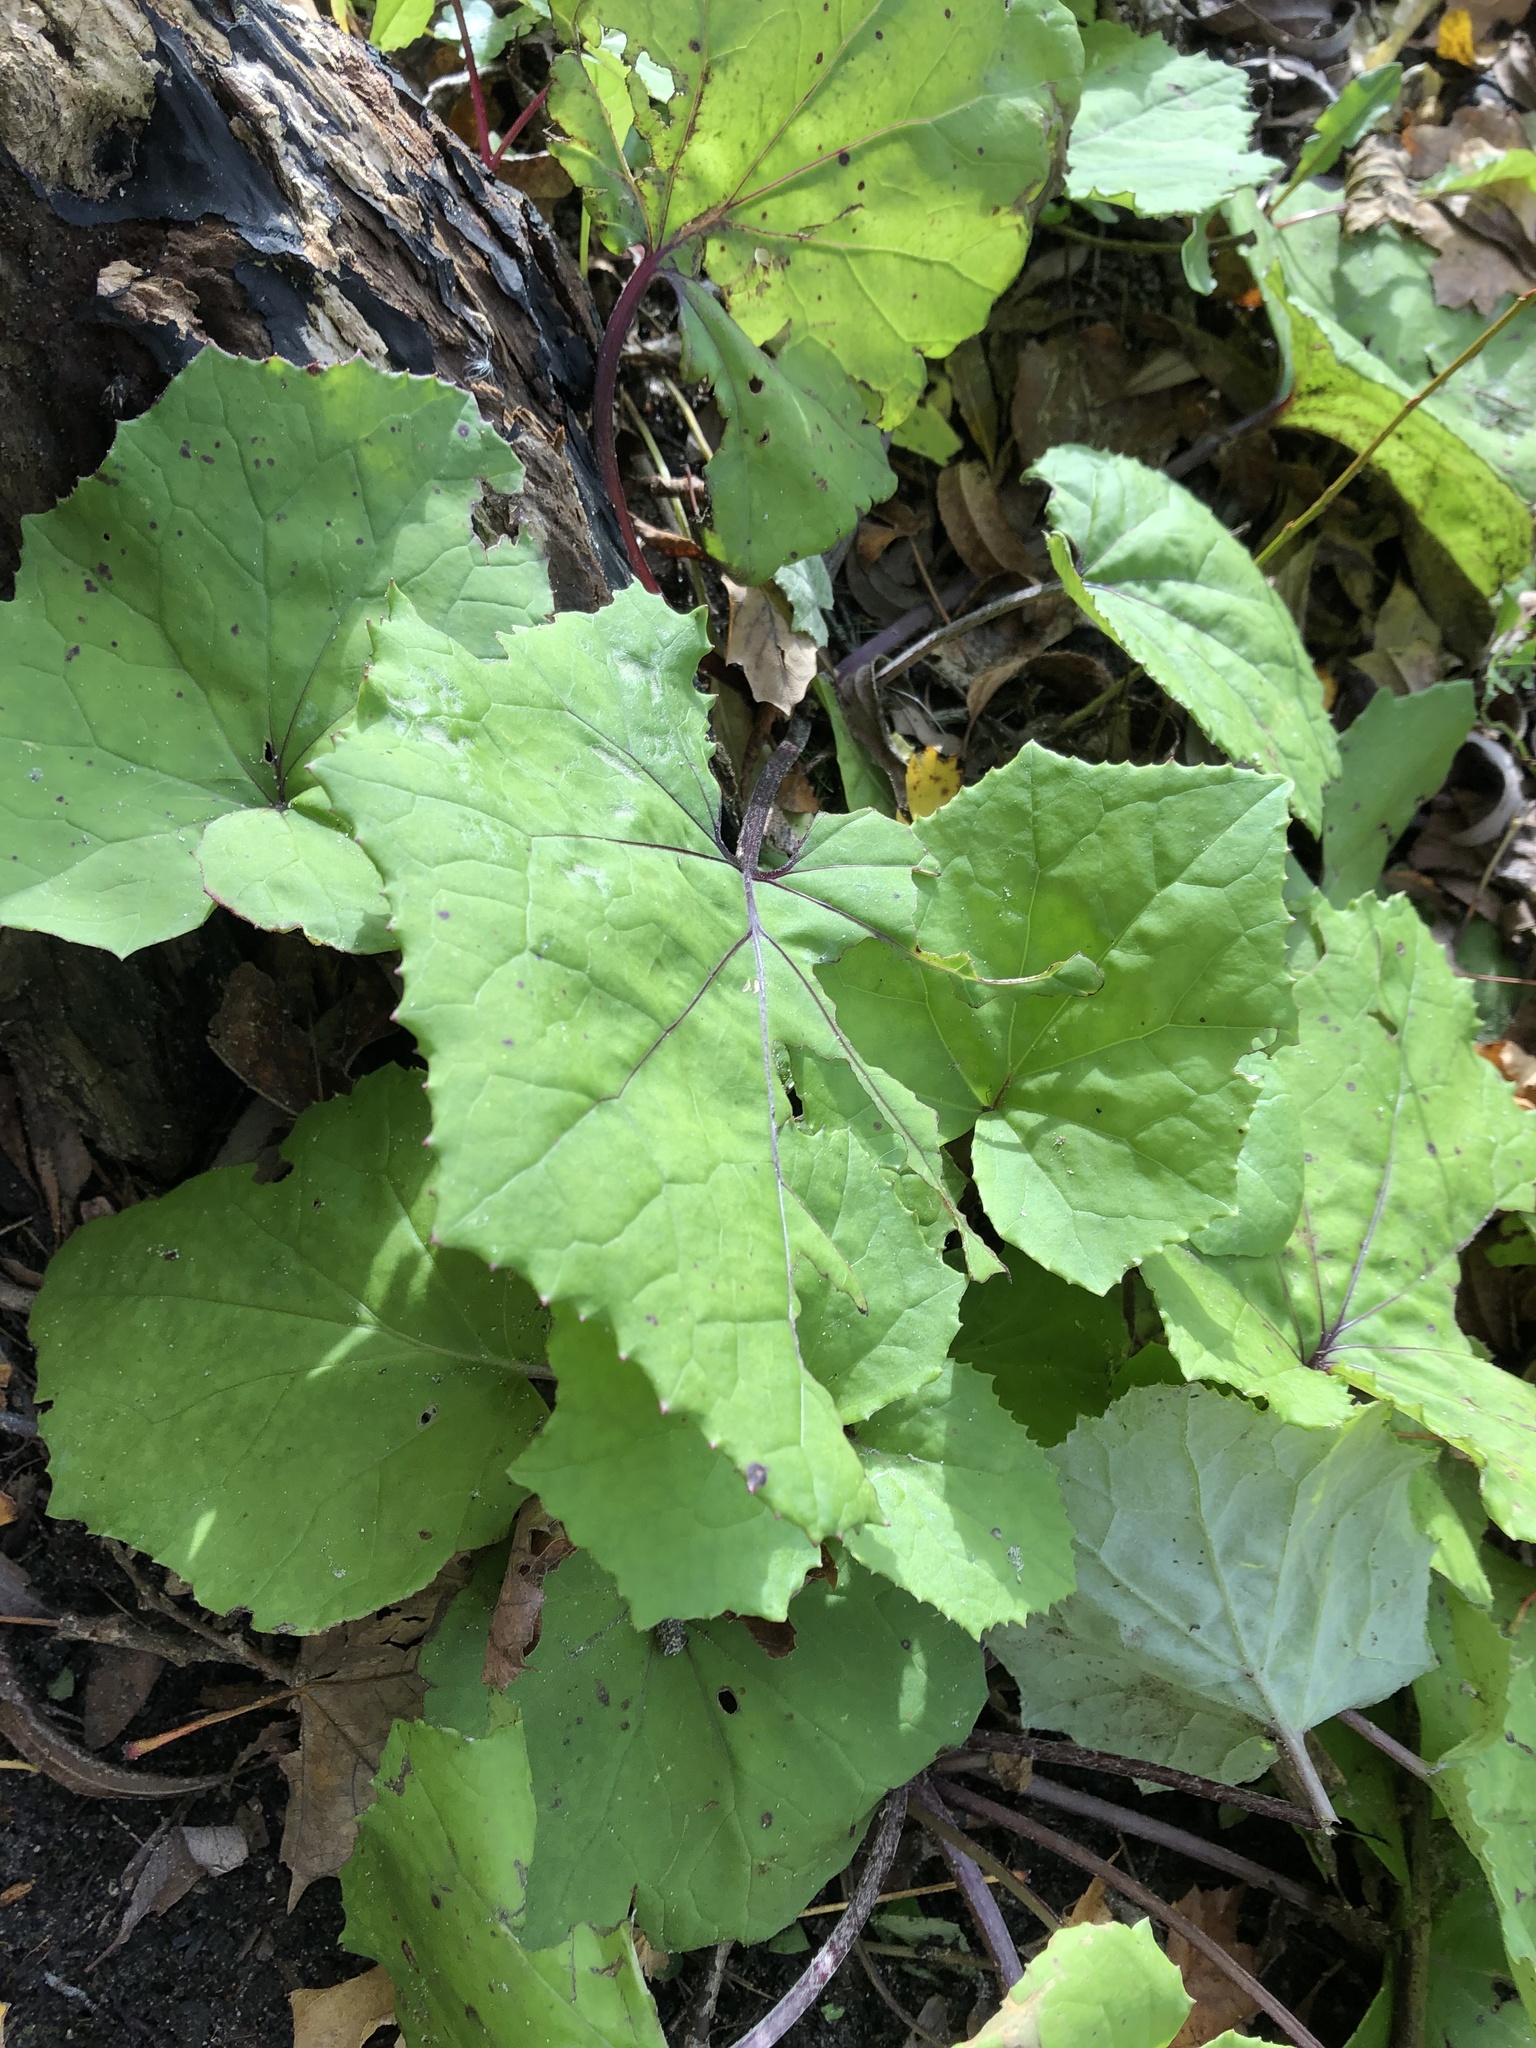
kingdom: Plantae
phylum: Tracheophyta
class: Magnoliopsida
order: Asterales
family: Asteraceae
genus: Tussilago
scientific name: Tussilago farfara
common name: Coltsfoot
